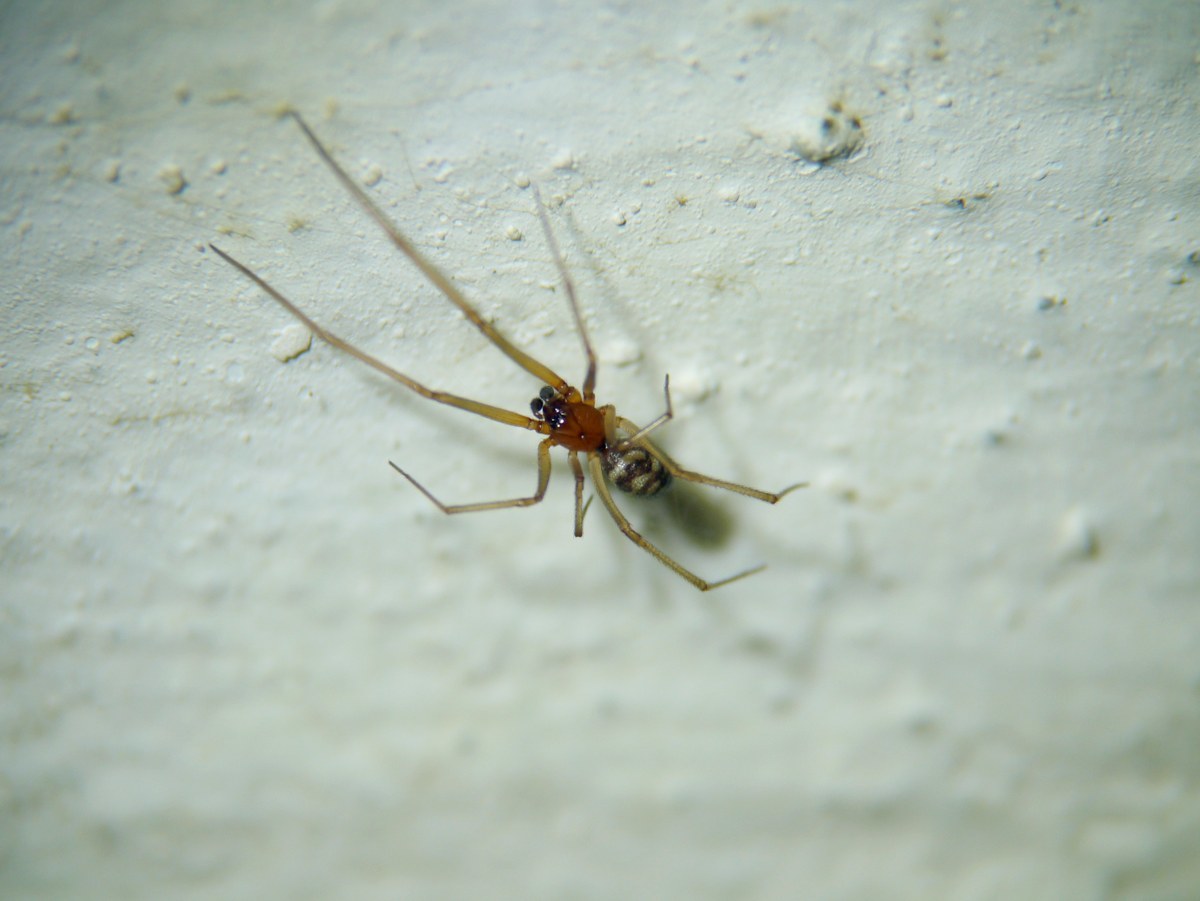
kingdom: Animalia
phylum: Arthropoda
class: Arachnida
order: Araneae
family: Theridiidae
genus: Steatoda
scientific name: Steatoda grossa
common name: False black widow
